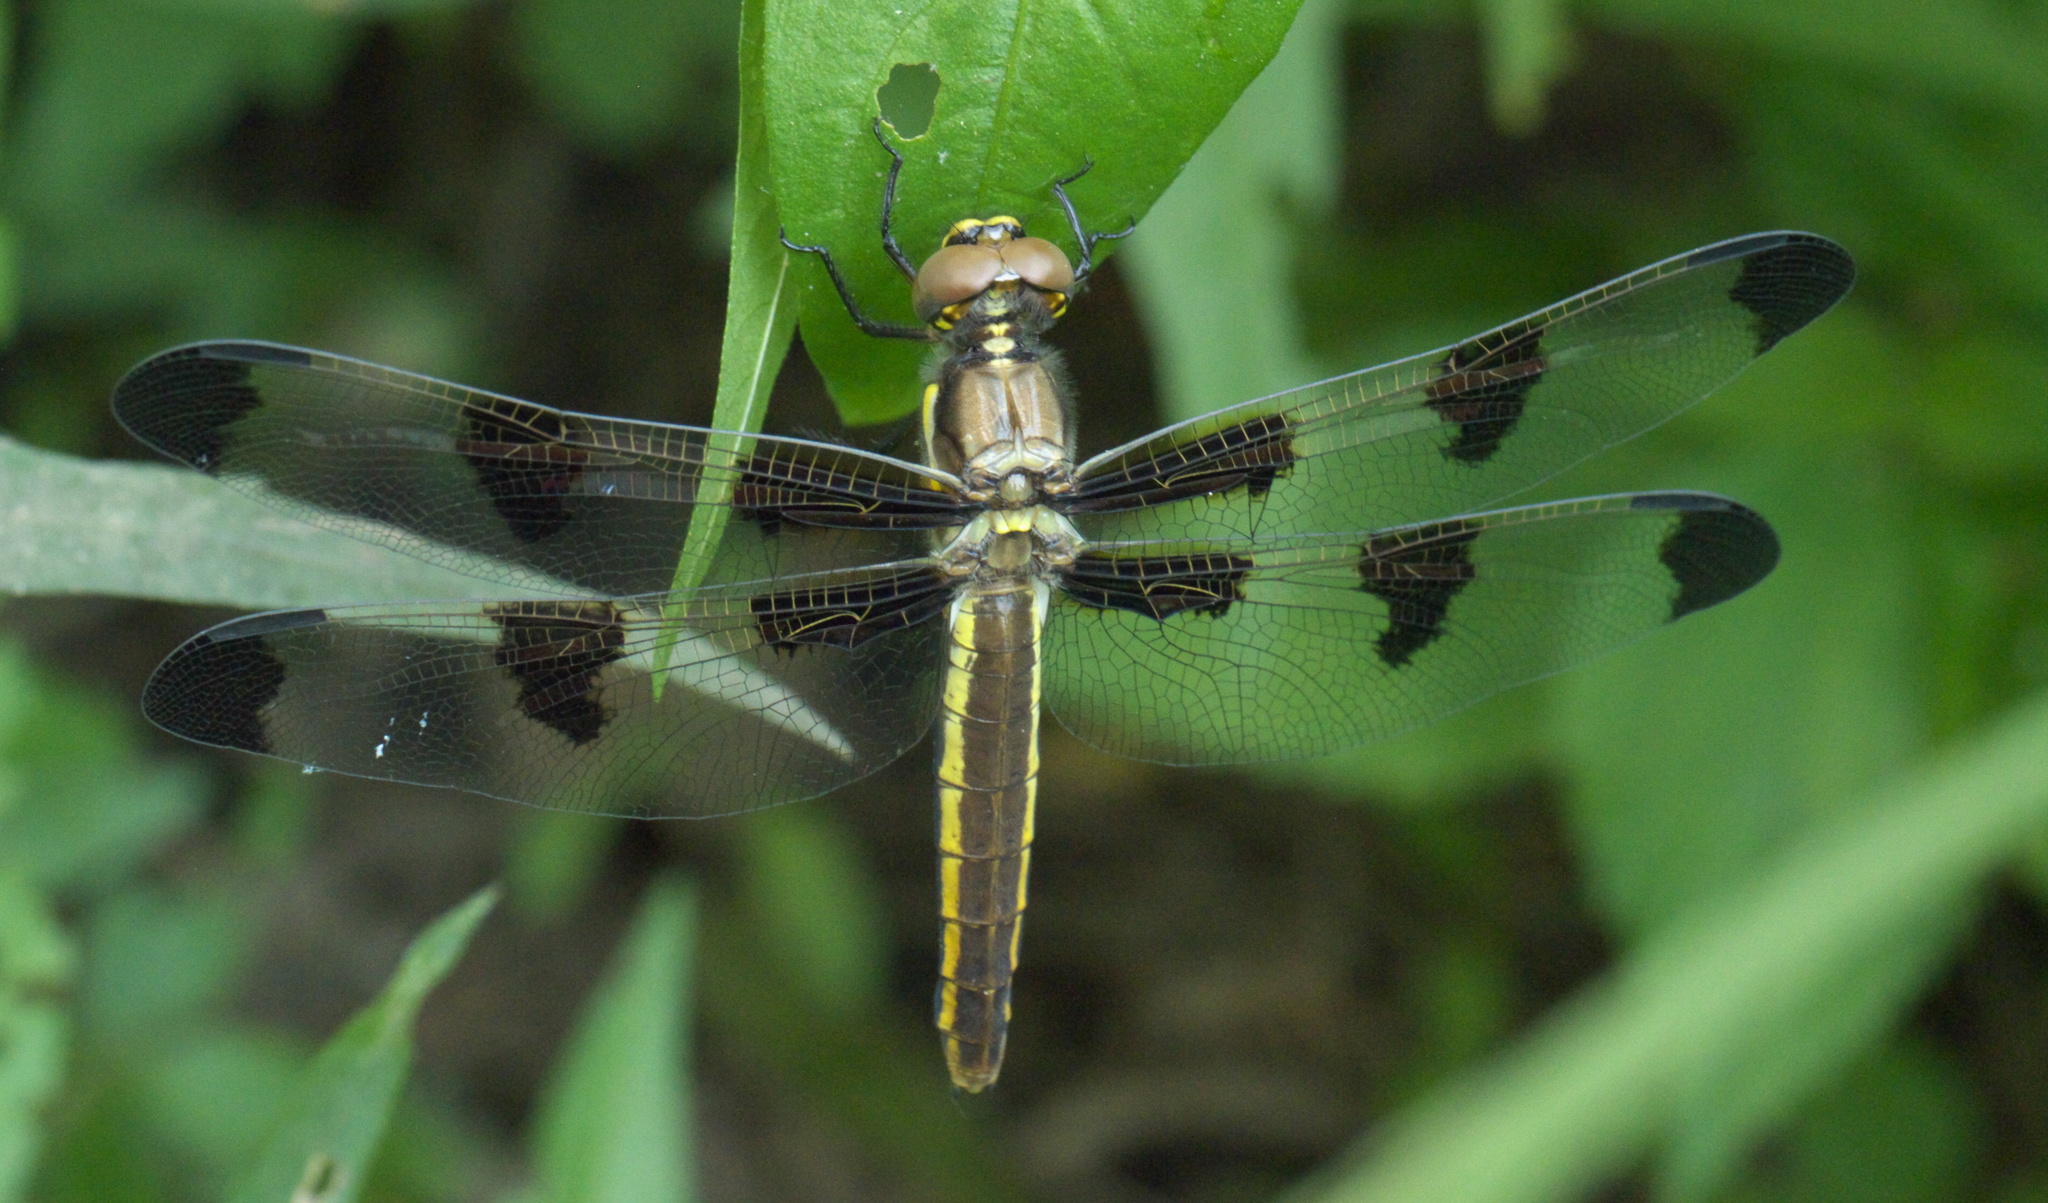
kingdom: Animalia
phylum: Arthropoda
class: Insecta
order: Odonata
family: Libellulidae
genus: Libellula
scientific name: Libellula pulchella
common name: Twelve-spotted skimmer
